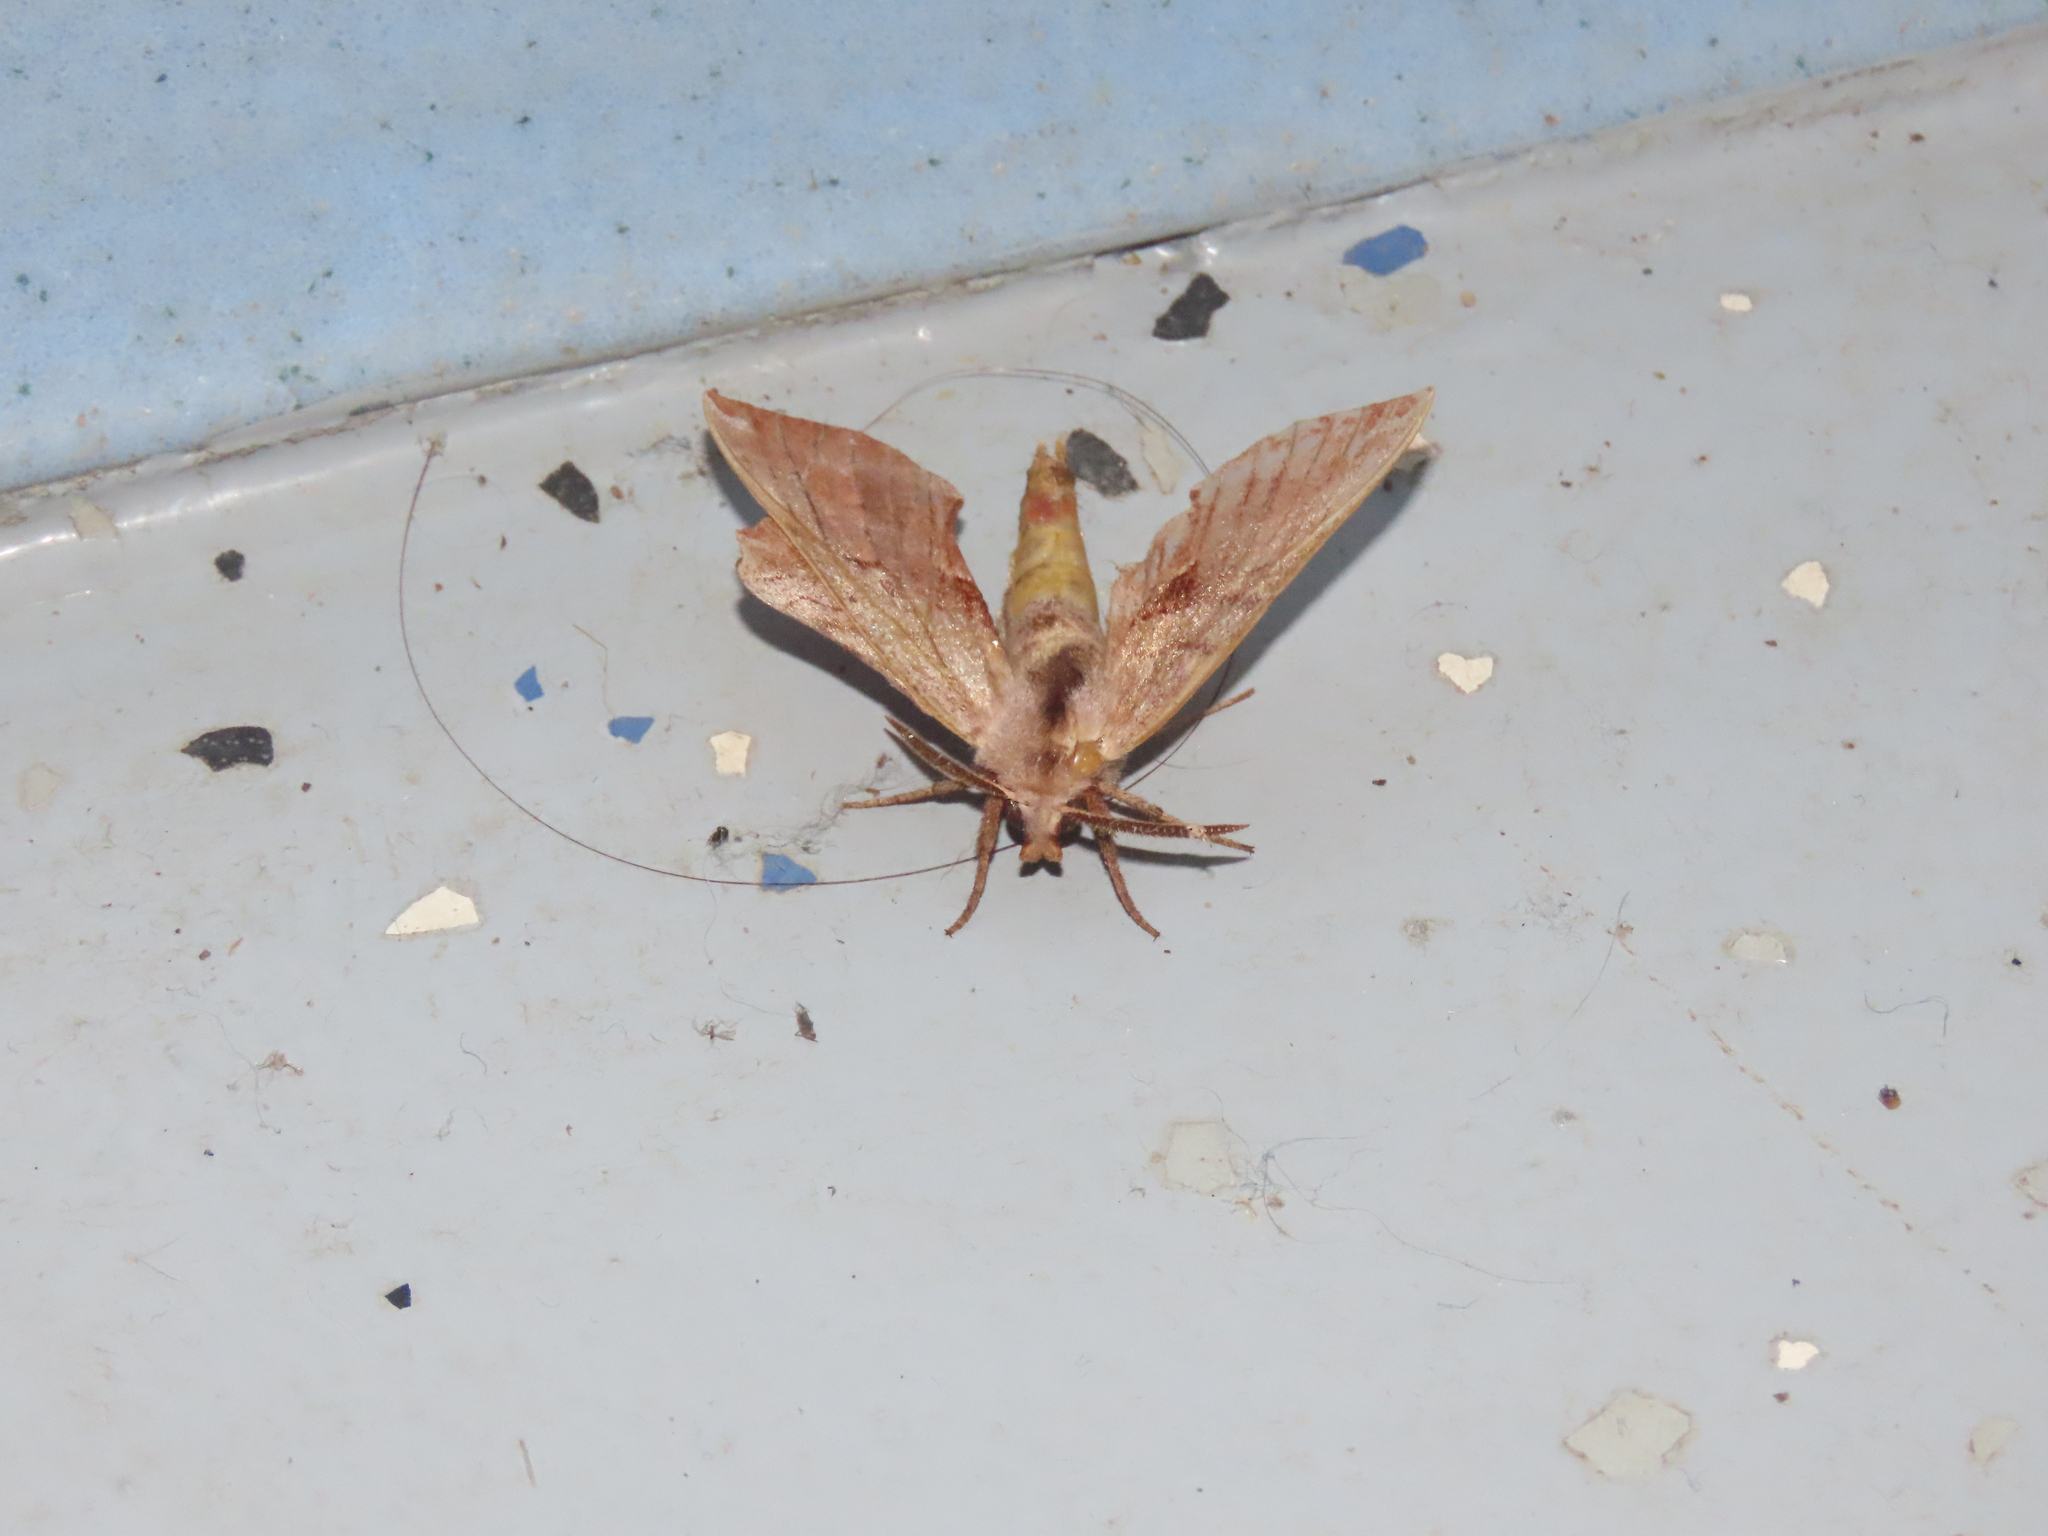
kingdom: Animalia
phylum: Arthropoda
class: Insecta
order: Lepidoptera
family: Sphingidae
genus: Amorpha
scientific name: Amorpha juglandis
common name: Walnut sphinx
